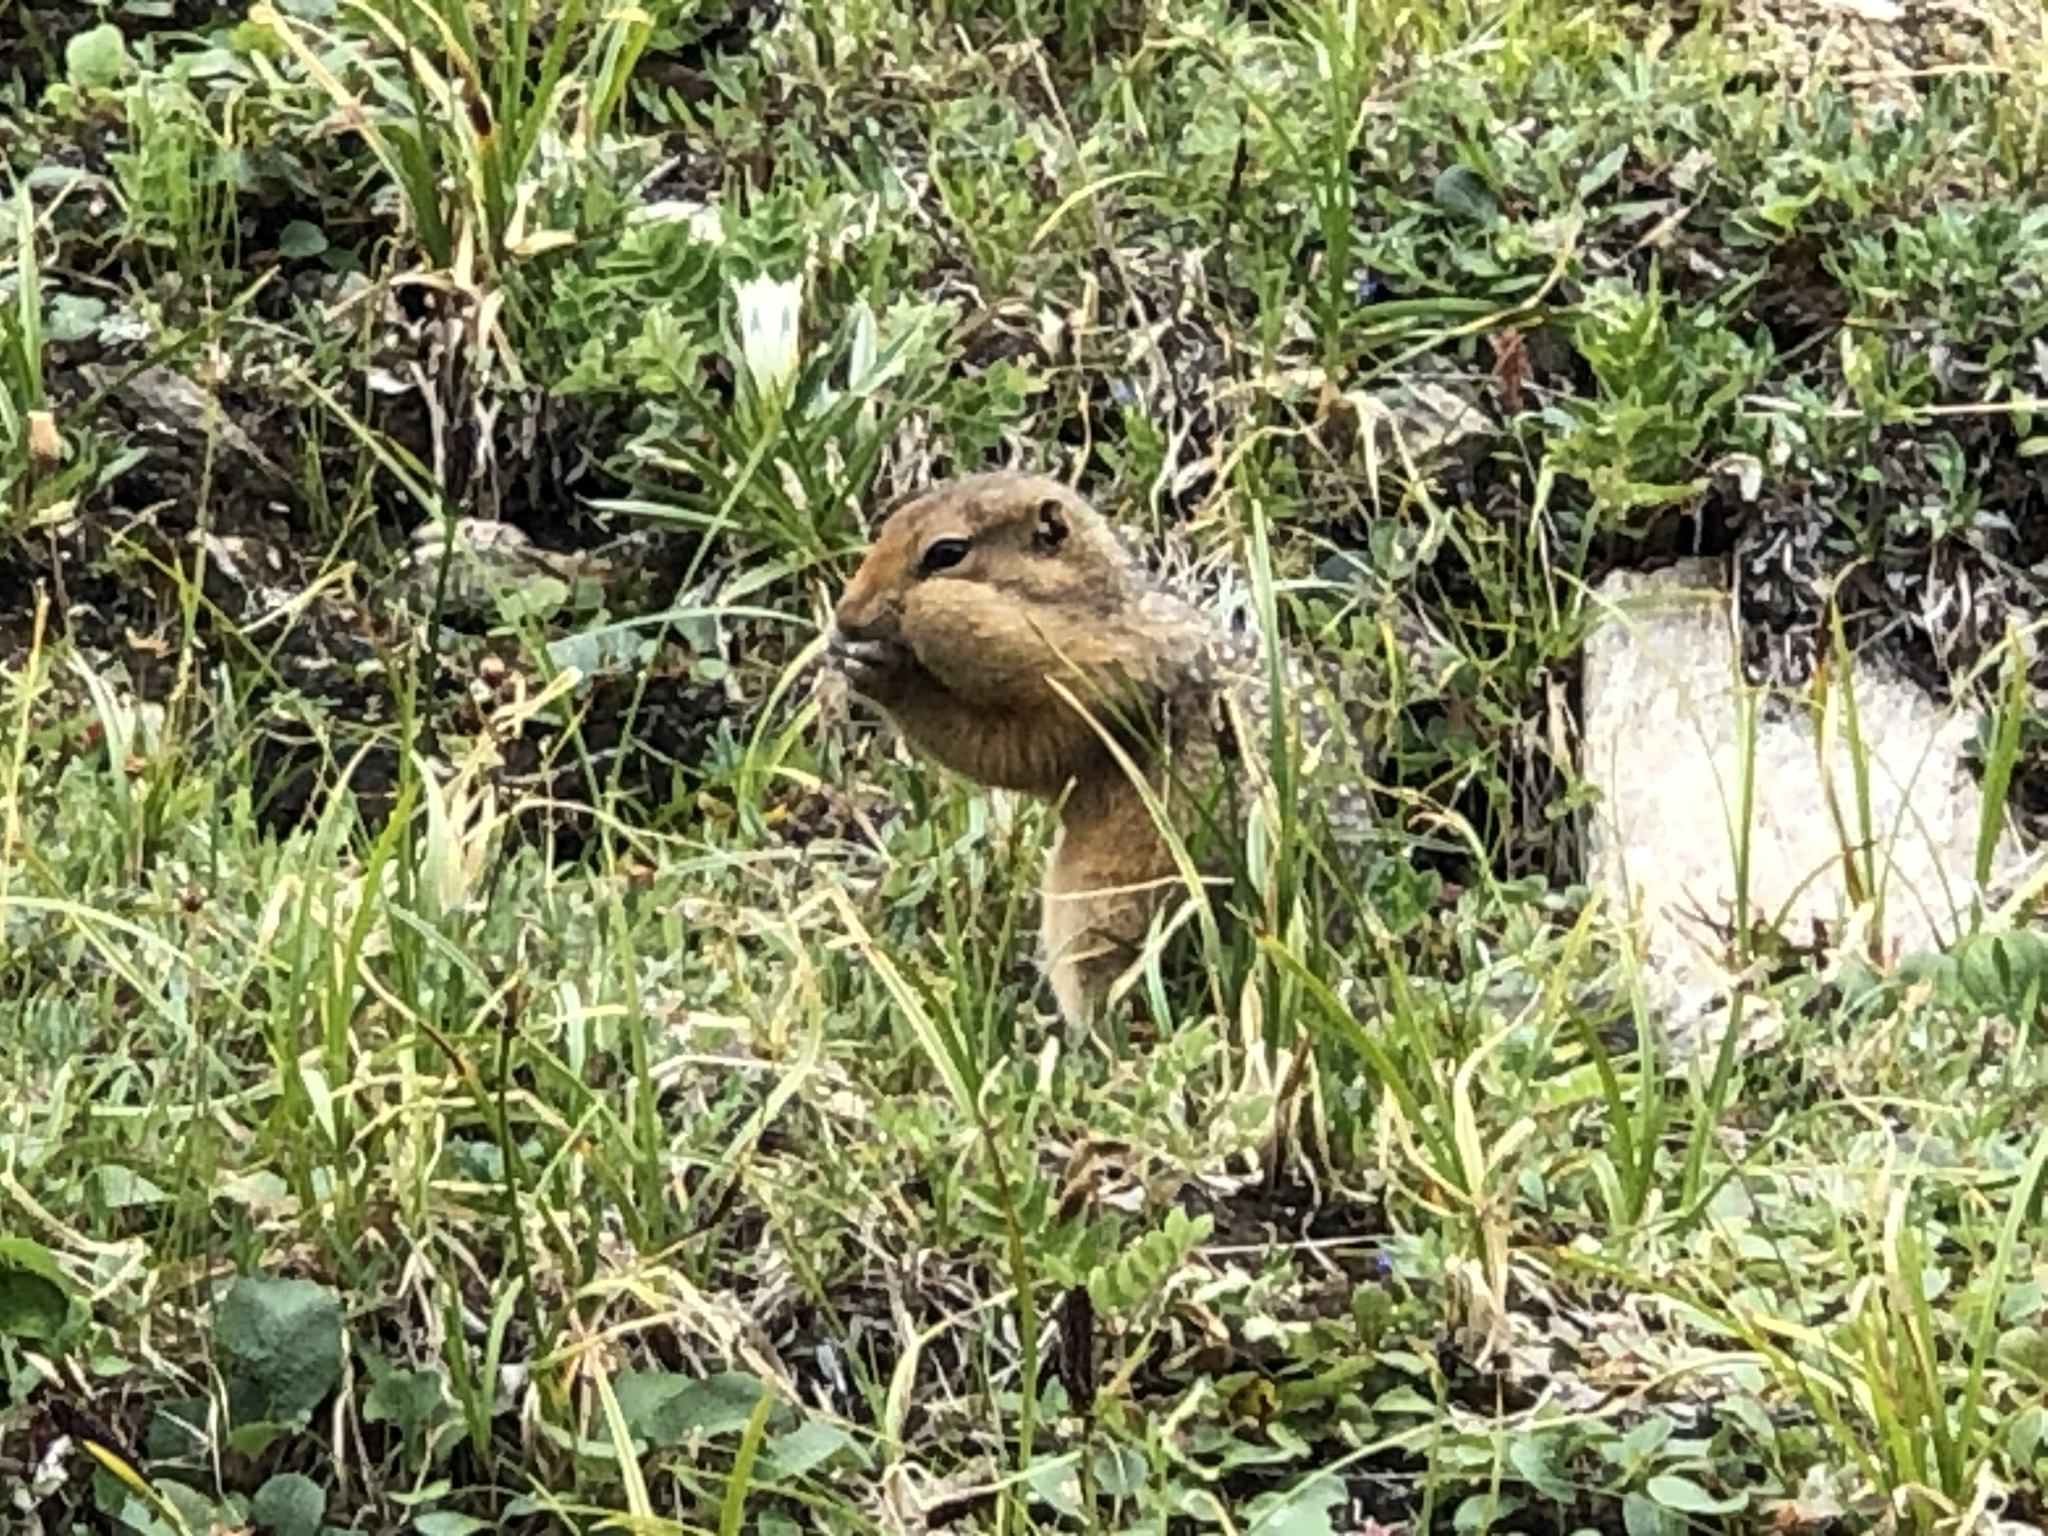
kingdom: Animalia
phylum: Chordata
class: Mammalia
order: Rodentia
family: Sciuridae
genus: Urocitellus
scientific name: Urocitellus parryii
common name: Arctic ground squirrel
